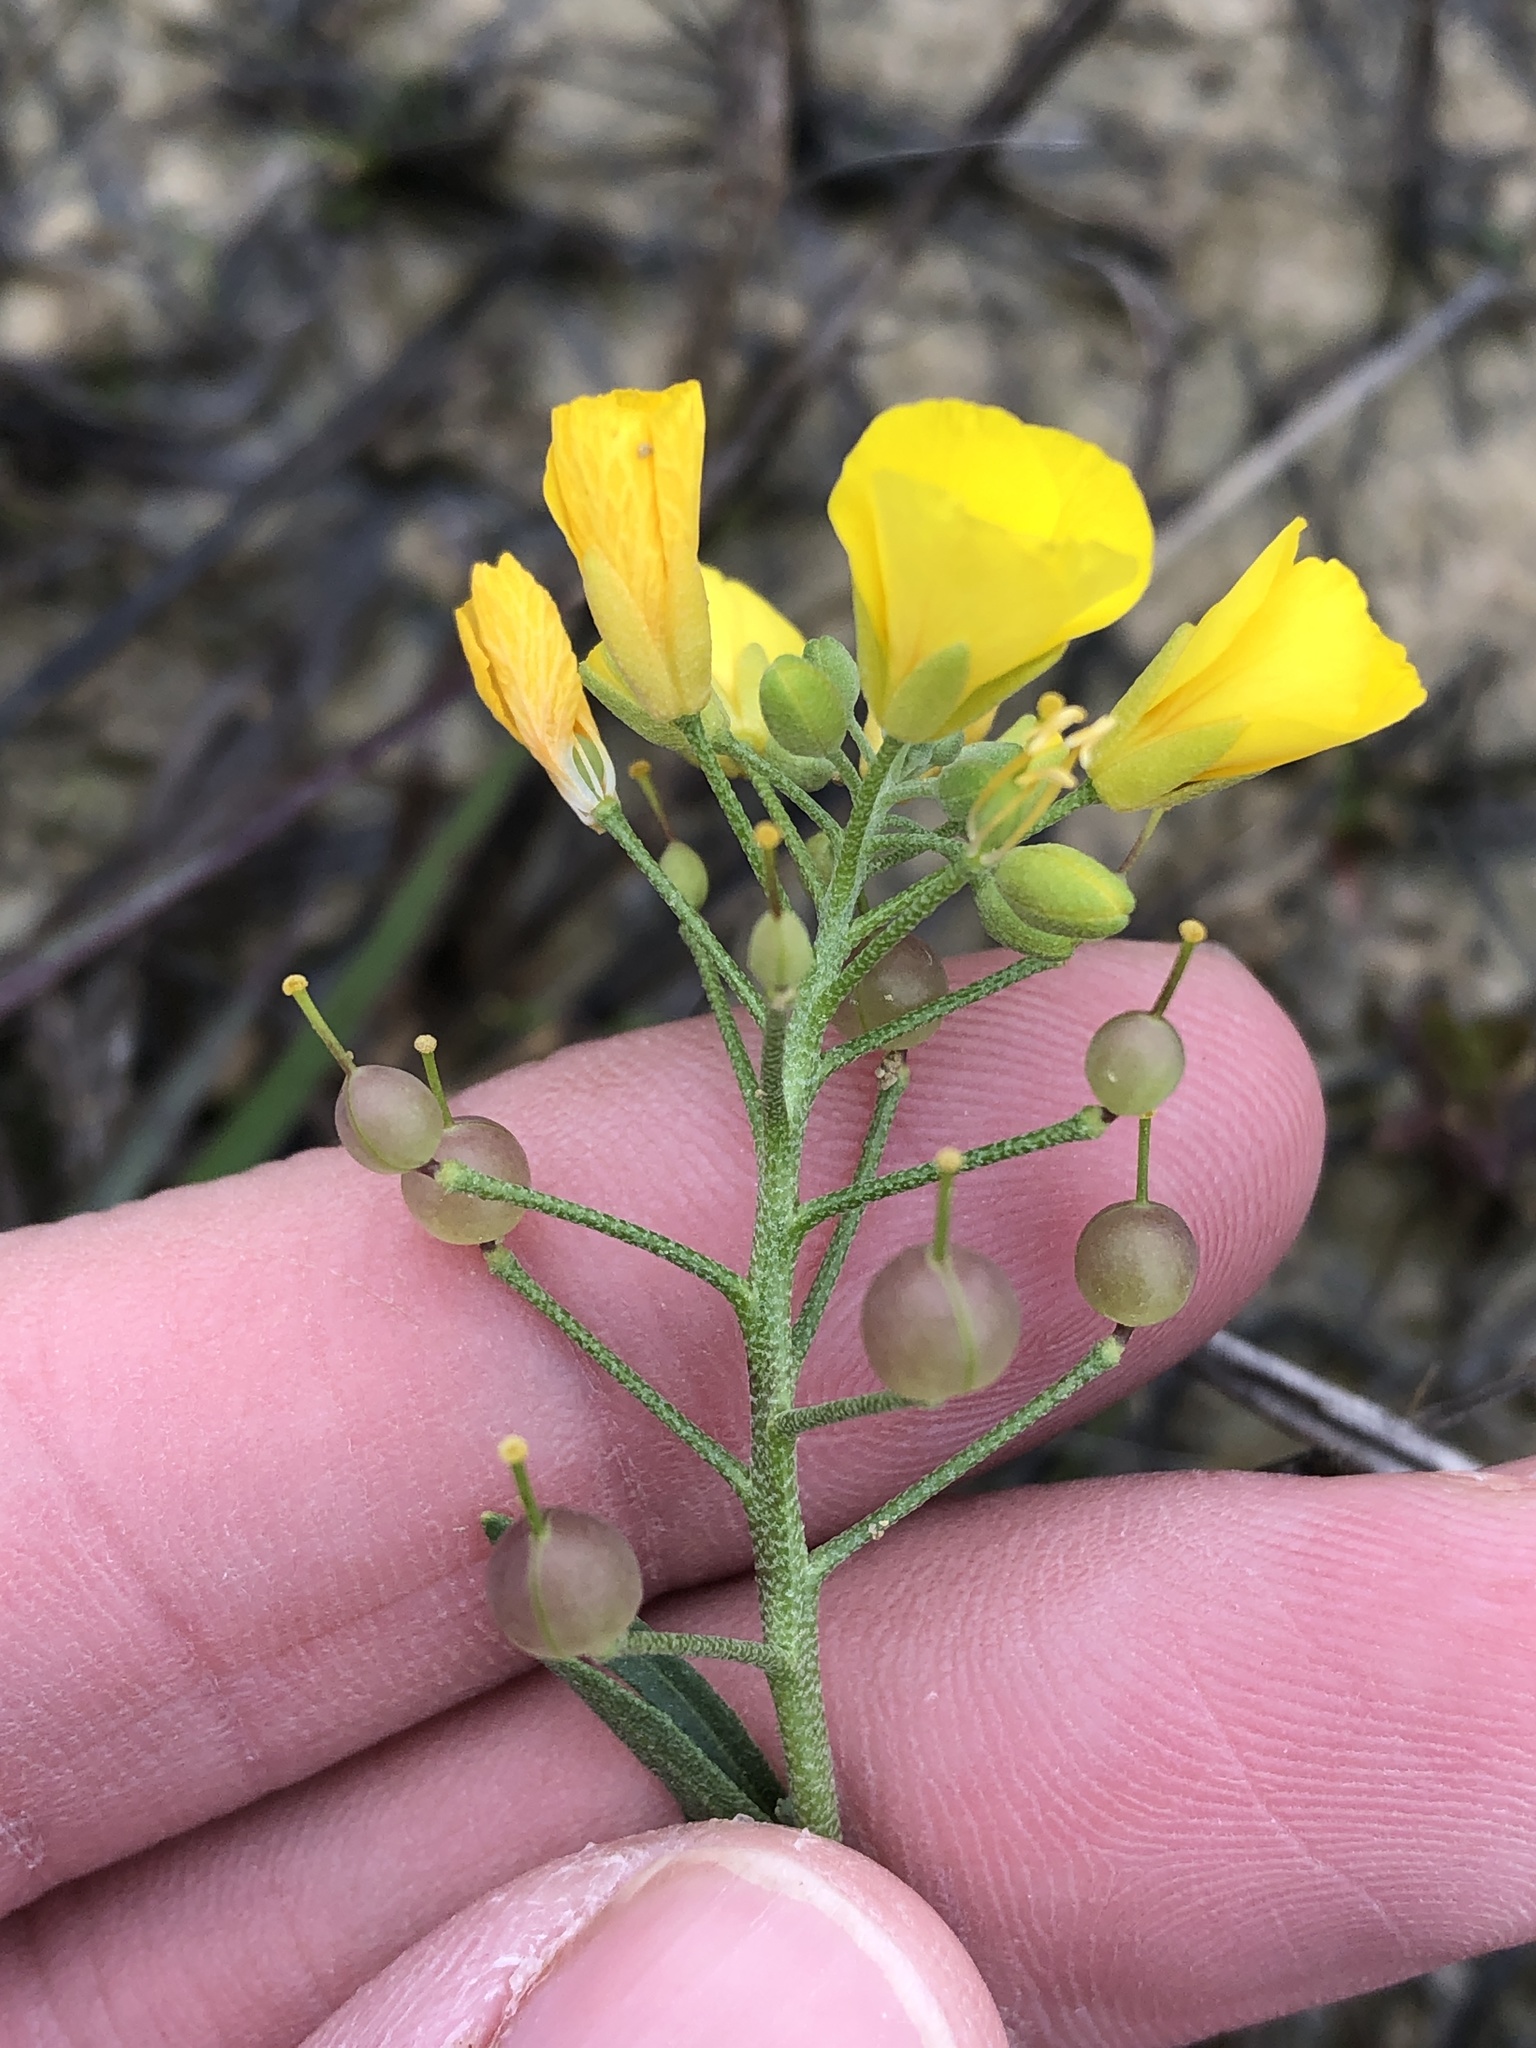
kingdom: Plantae
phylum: Tracheophyta
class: Magnoliopsida
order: Brassicales
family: Brassicaceae
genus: Physaria
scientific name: Physaria gracilis
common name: Spreading bladderpod
